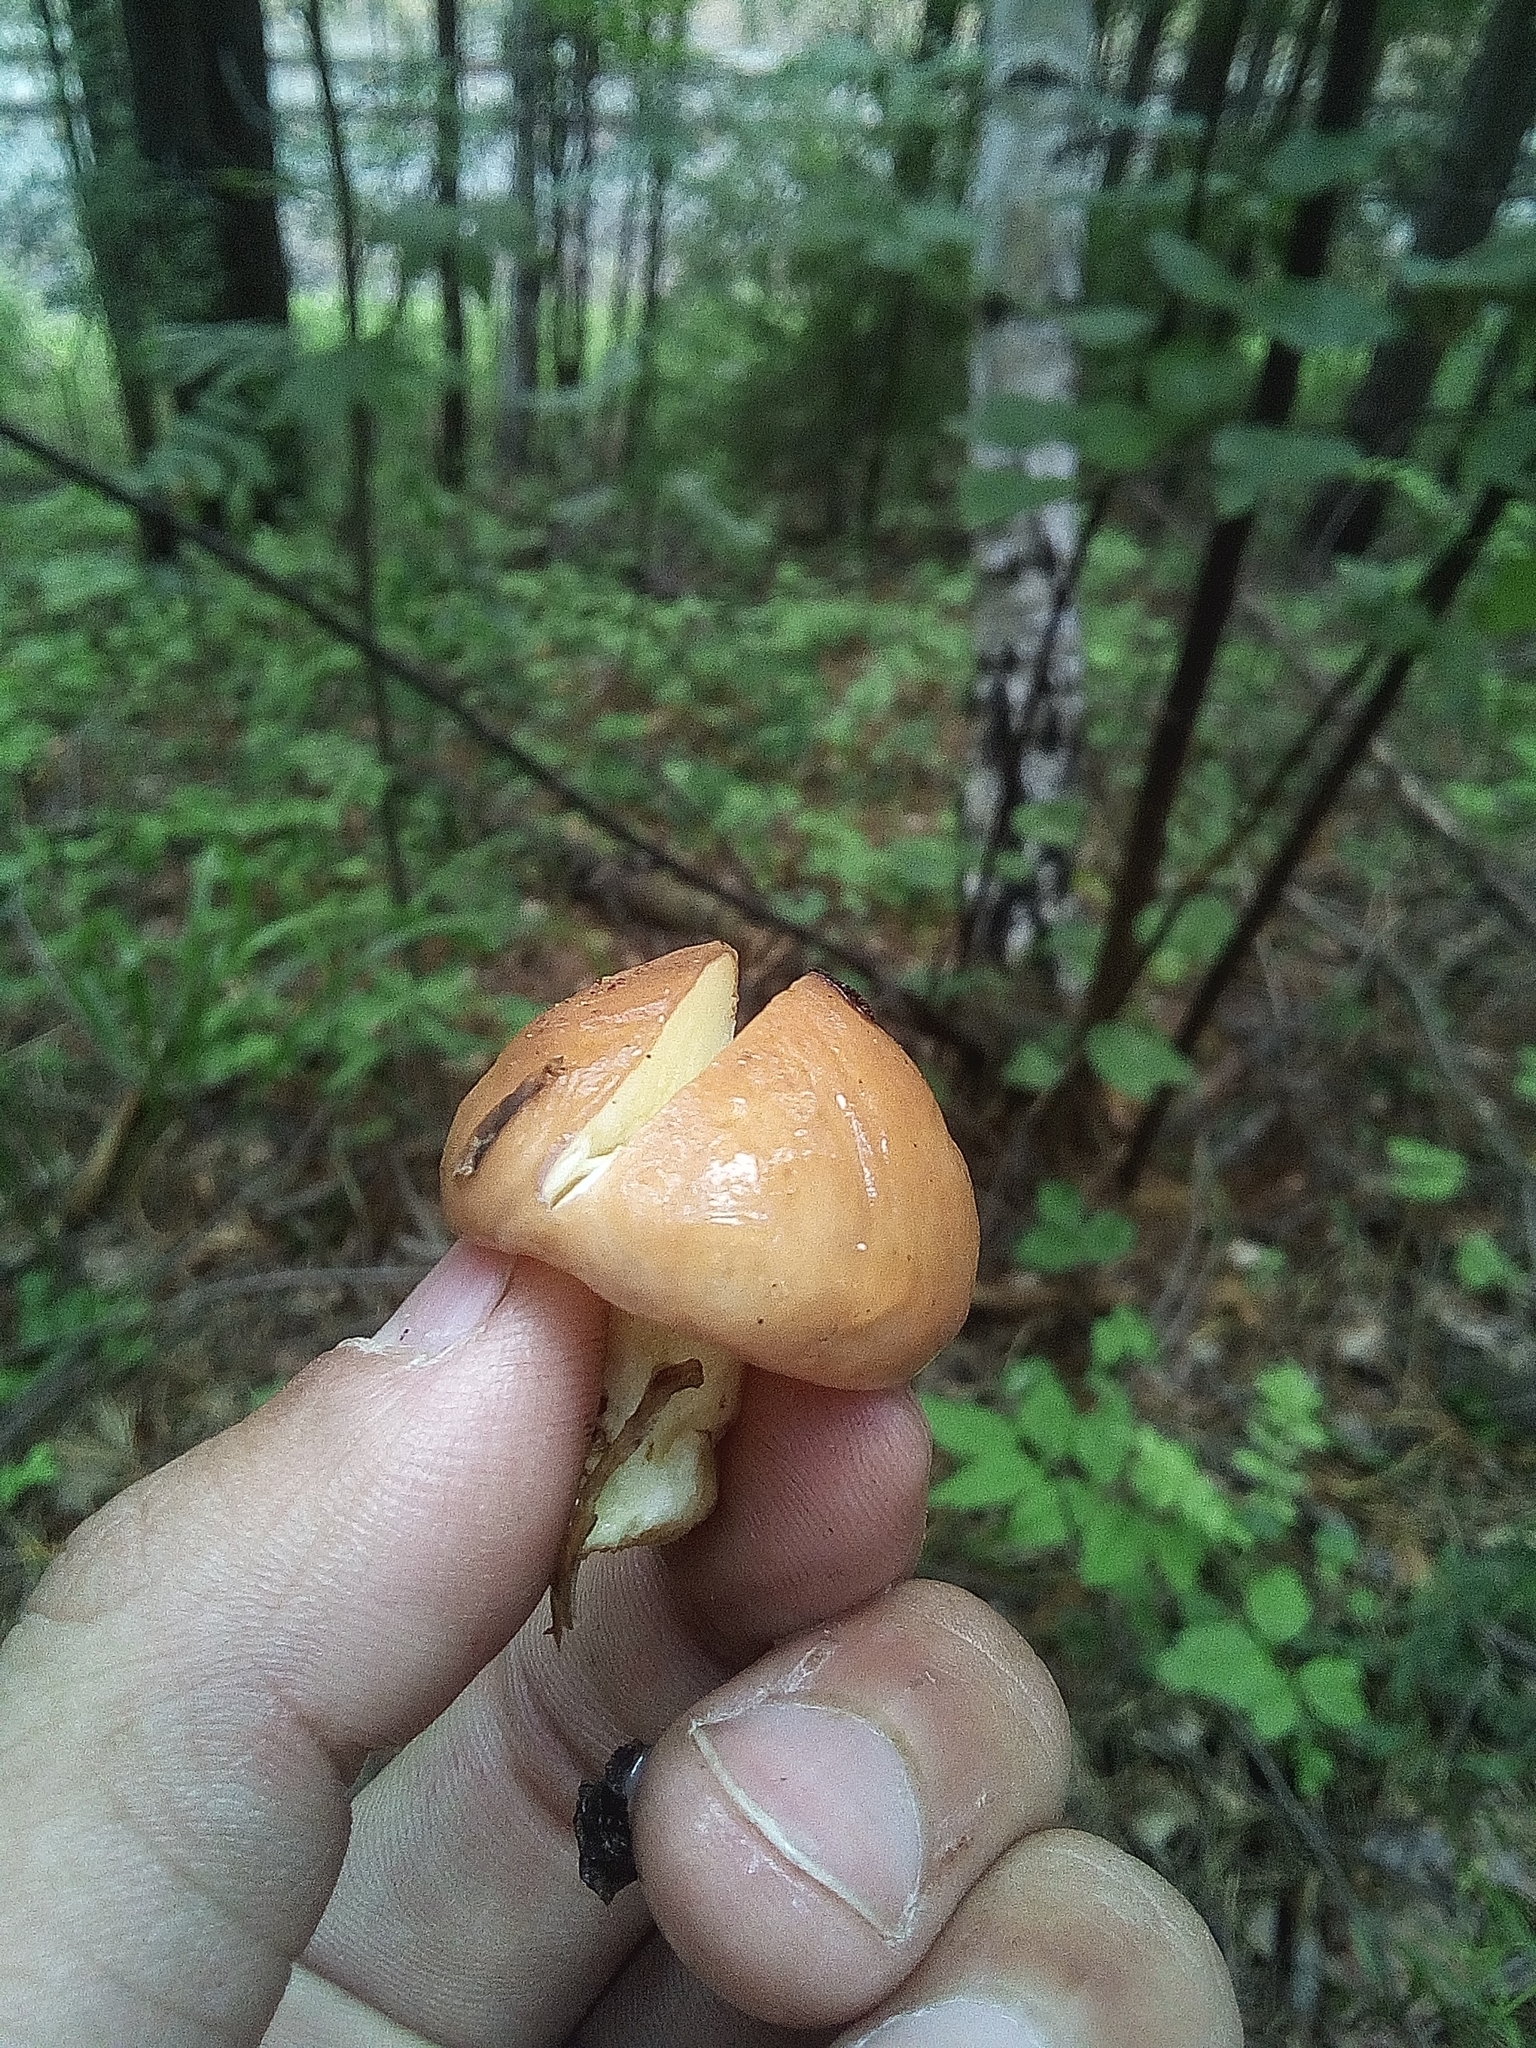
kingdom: Fungi
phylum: Basidiomycota
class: Agaricomycetes
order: Boletales
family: Suillaceae
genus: Suillus
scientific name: Suillus granulatus
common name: Weeping bolete
